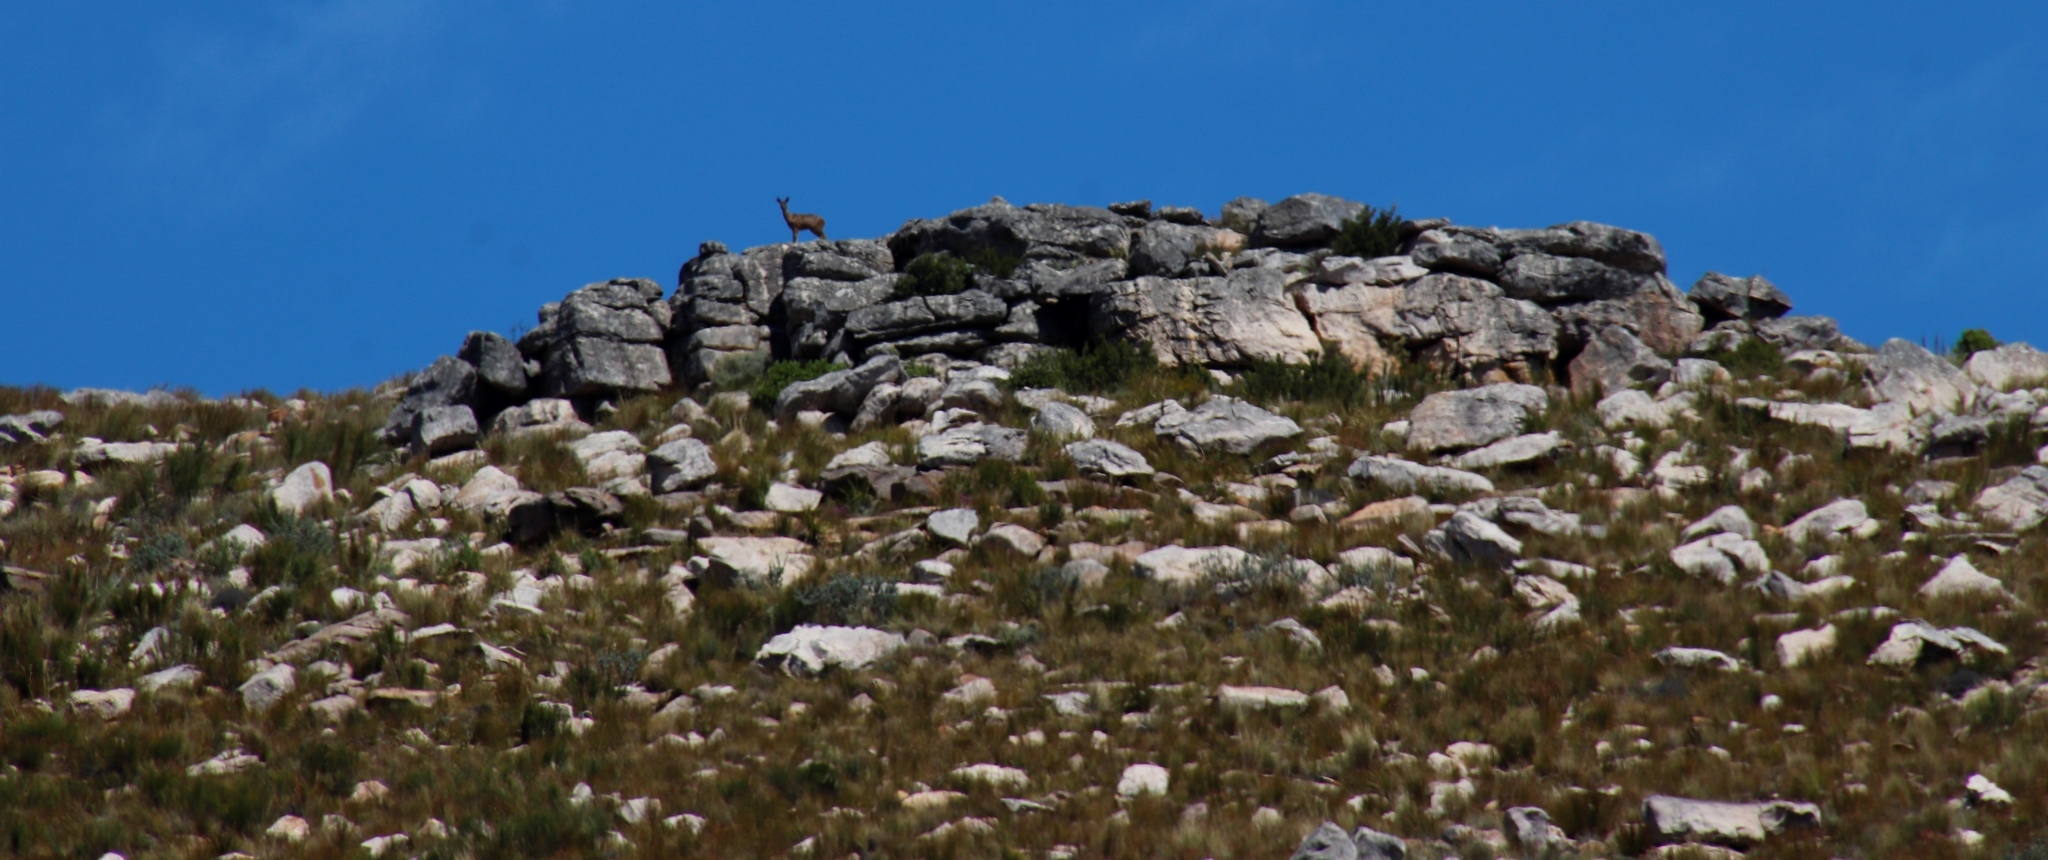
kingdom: Animalia
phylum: Chordata
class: Mammalia
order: Artiodactyla
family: Bovidae
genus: Oreotragus
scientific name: Oreotragus oreotragus
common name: Klipspringer
